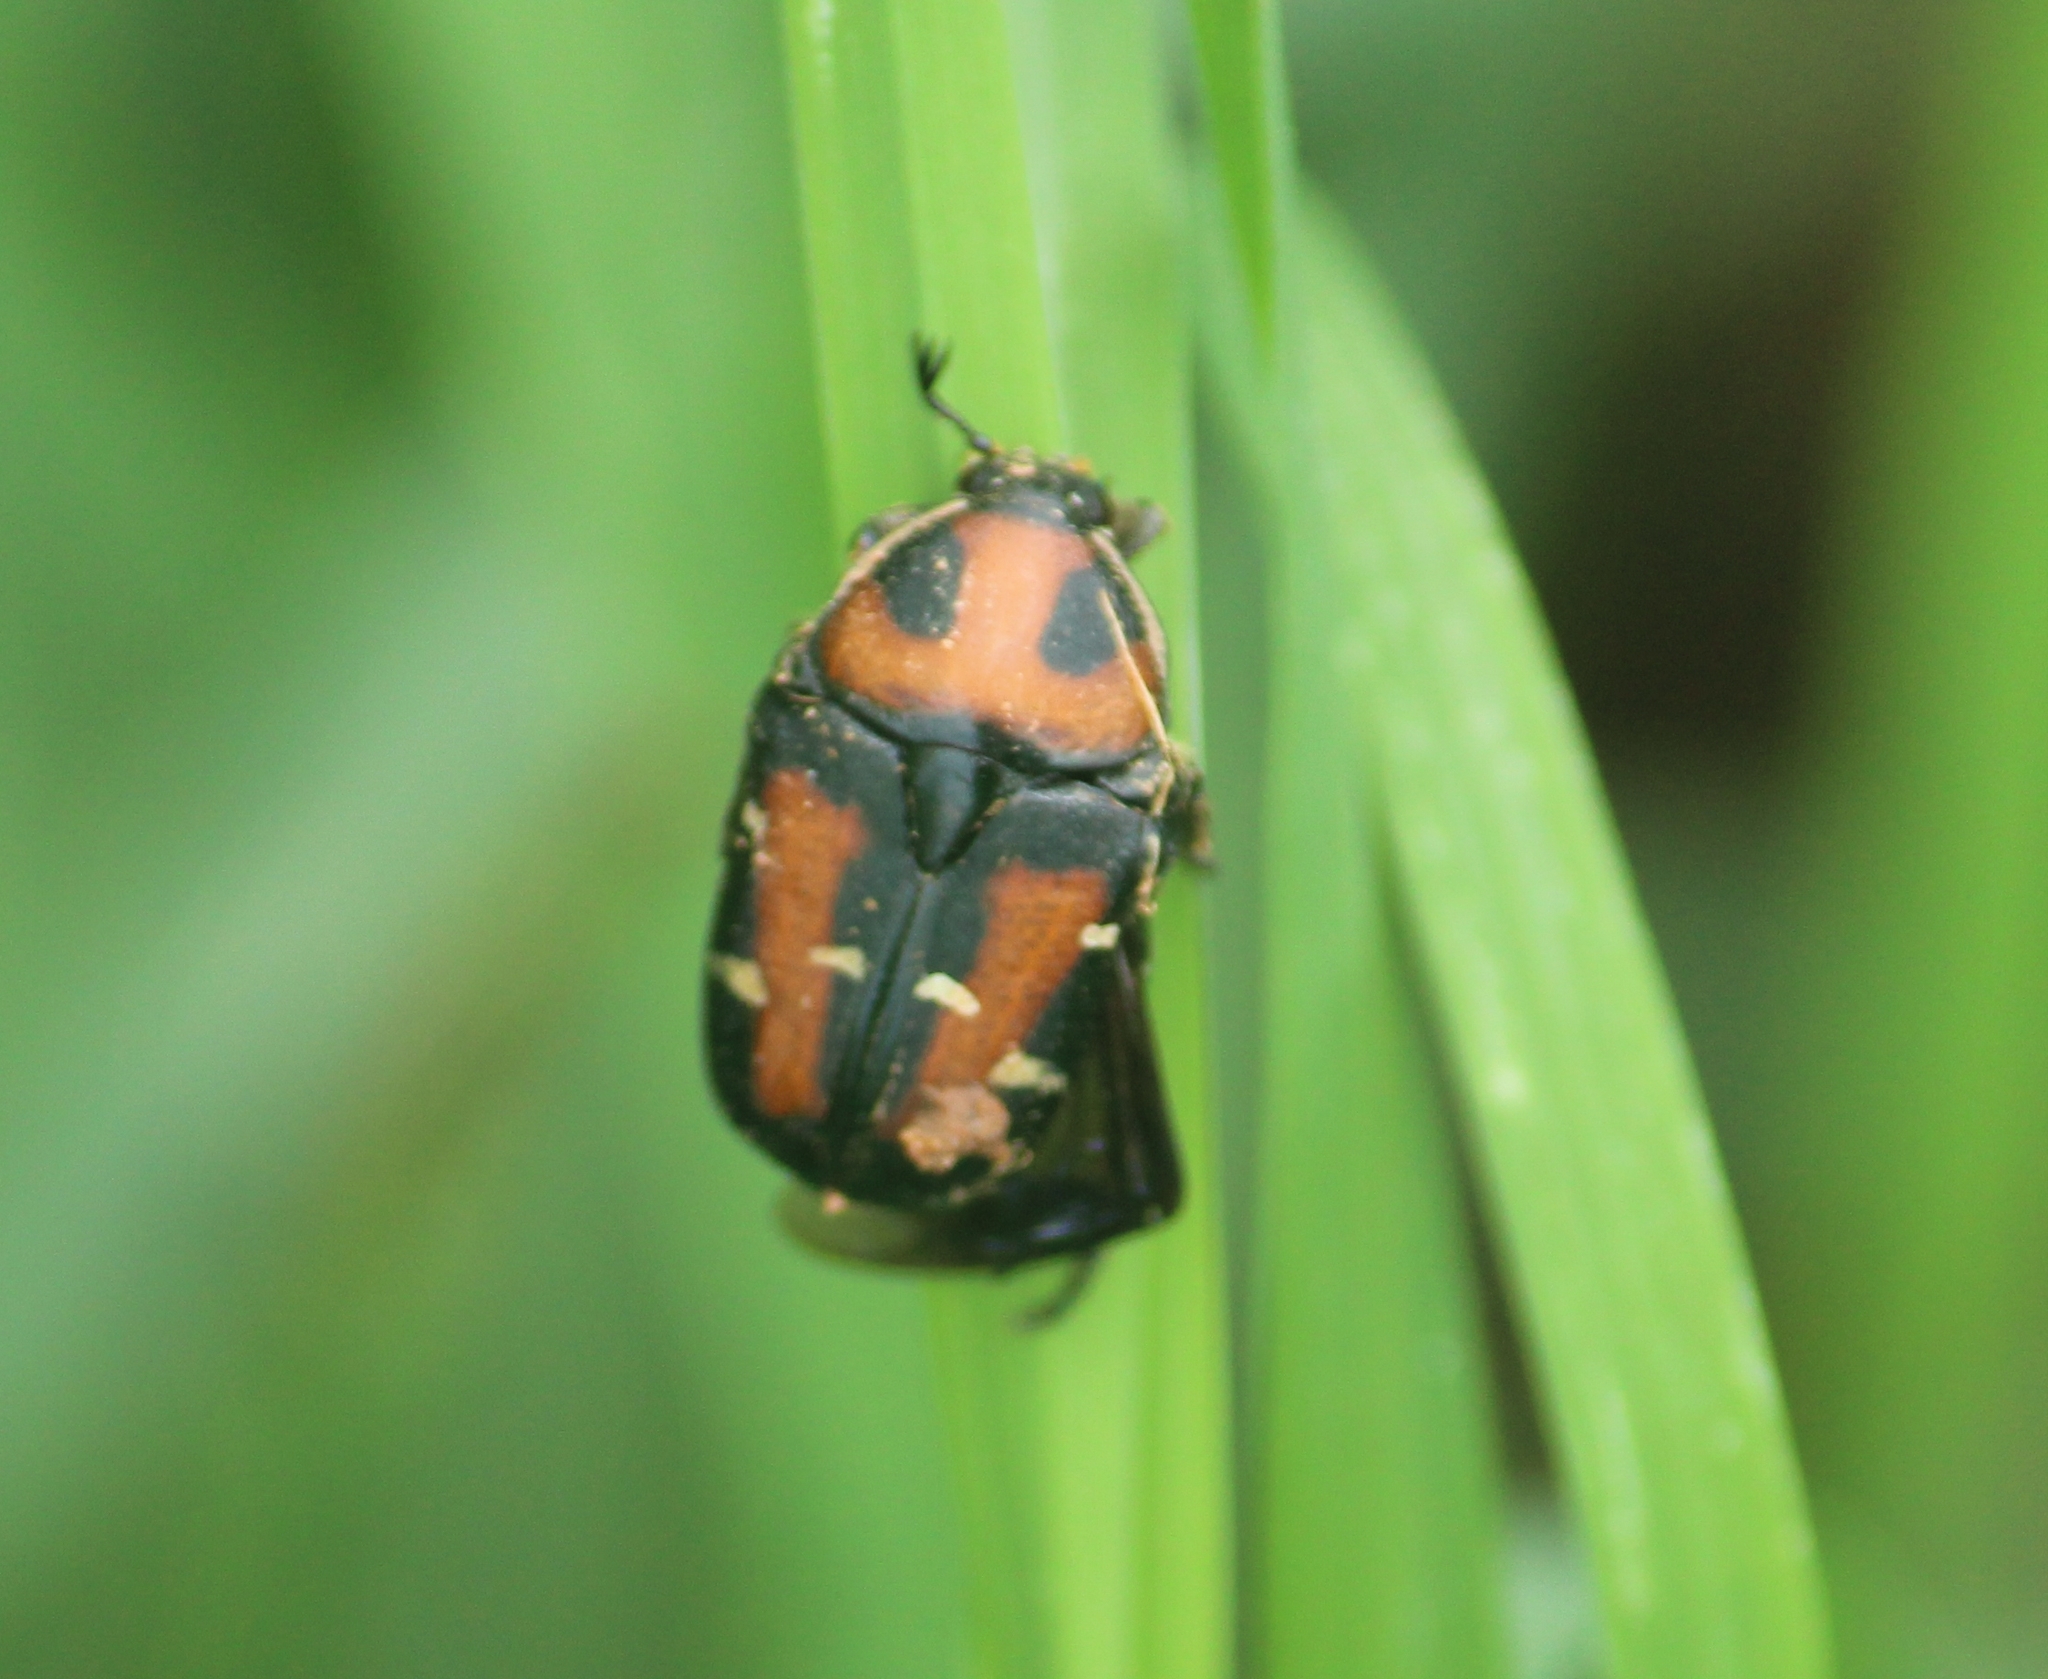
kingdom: Animalia
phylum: Arthropoda
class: Insecta
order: Coleoptera
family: Scarabaeidae
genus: Gametis
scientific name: Gametis versicolor
